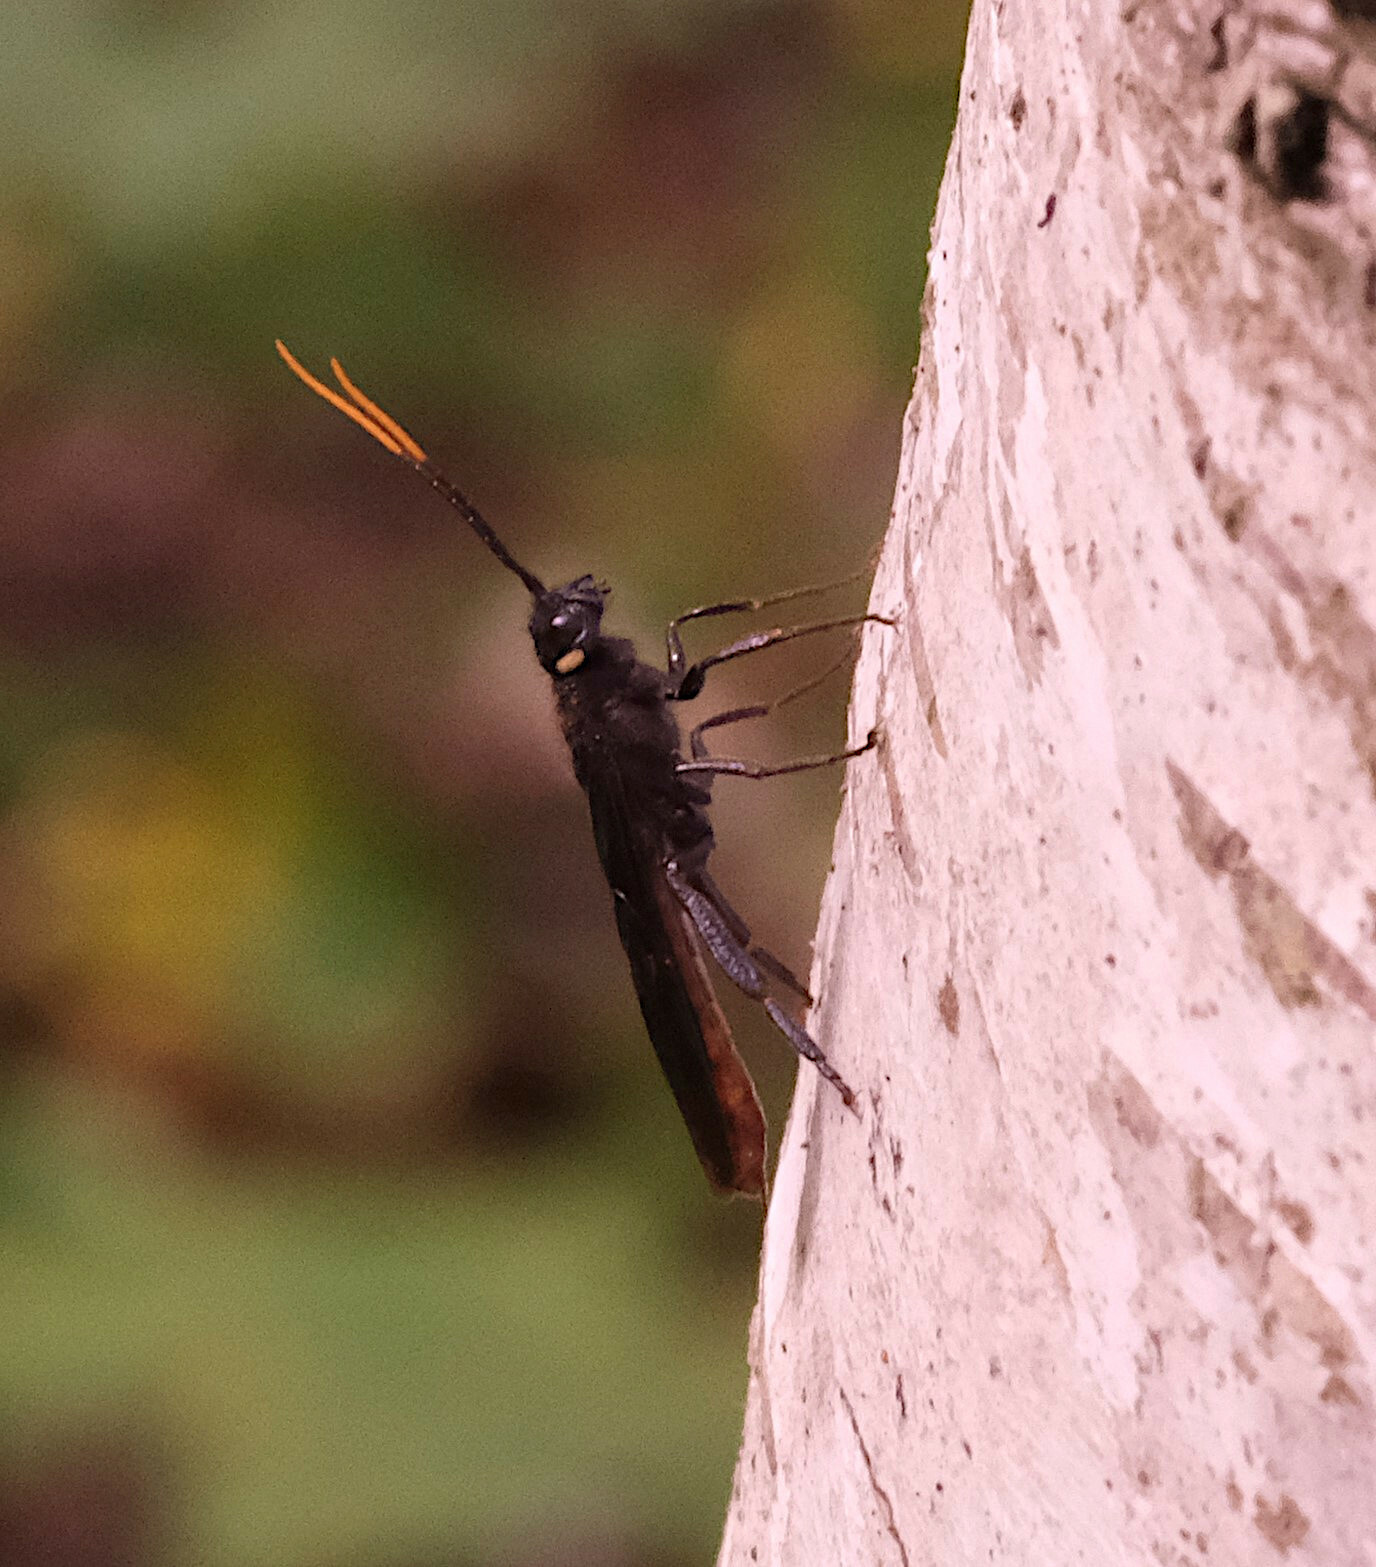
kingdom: Animalia
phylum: Arthropoda
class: Insecta
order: Hymenoptera
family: Siricidae
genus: Urocerus
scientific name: Urocerus cressoni
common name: Black-and-red horntail
